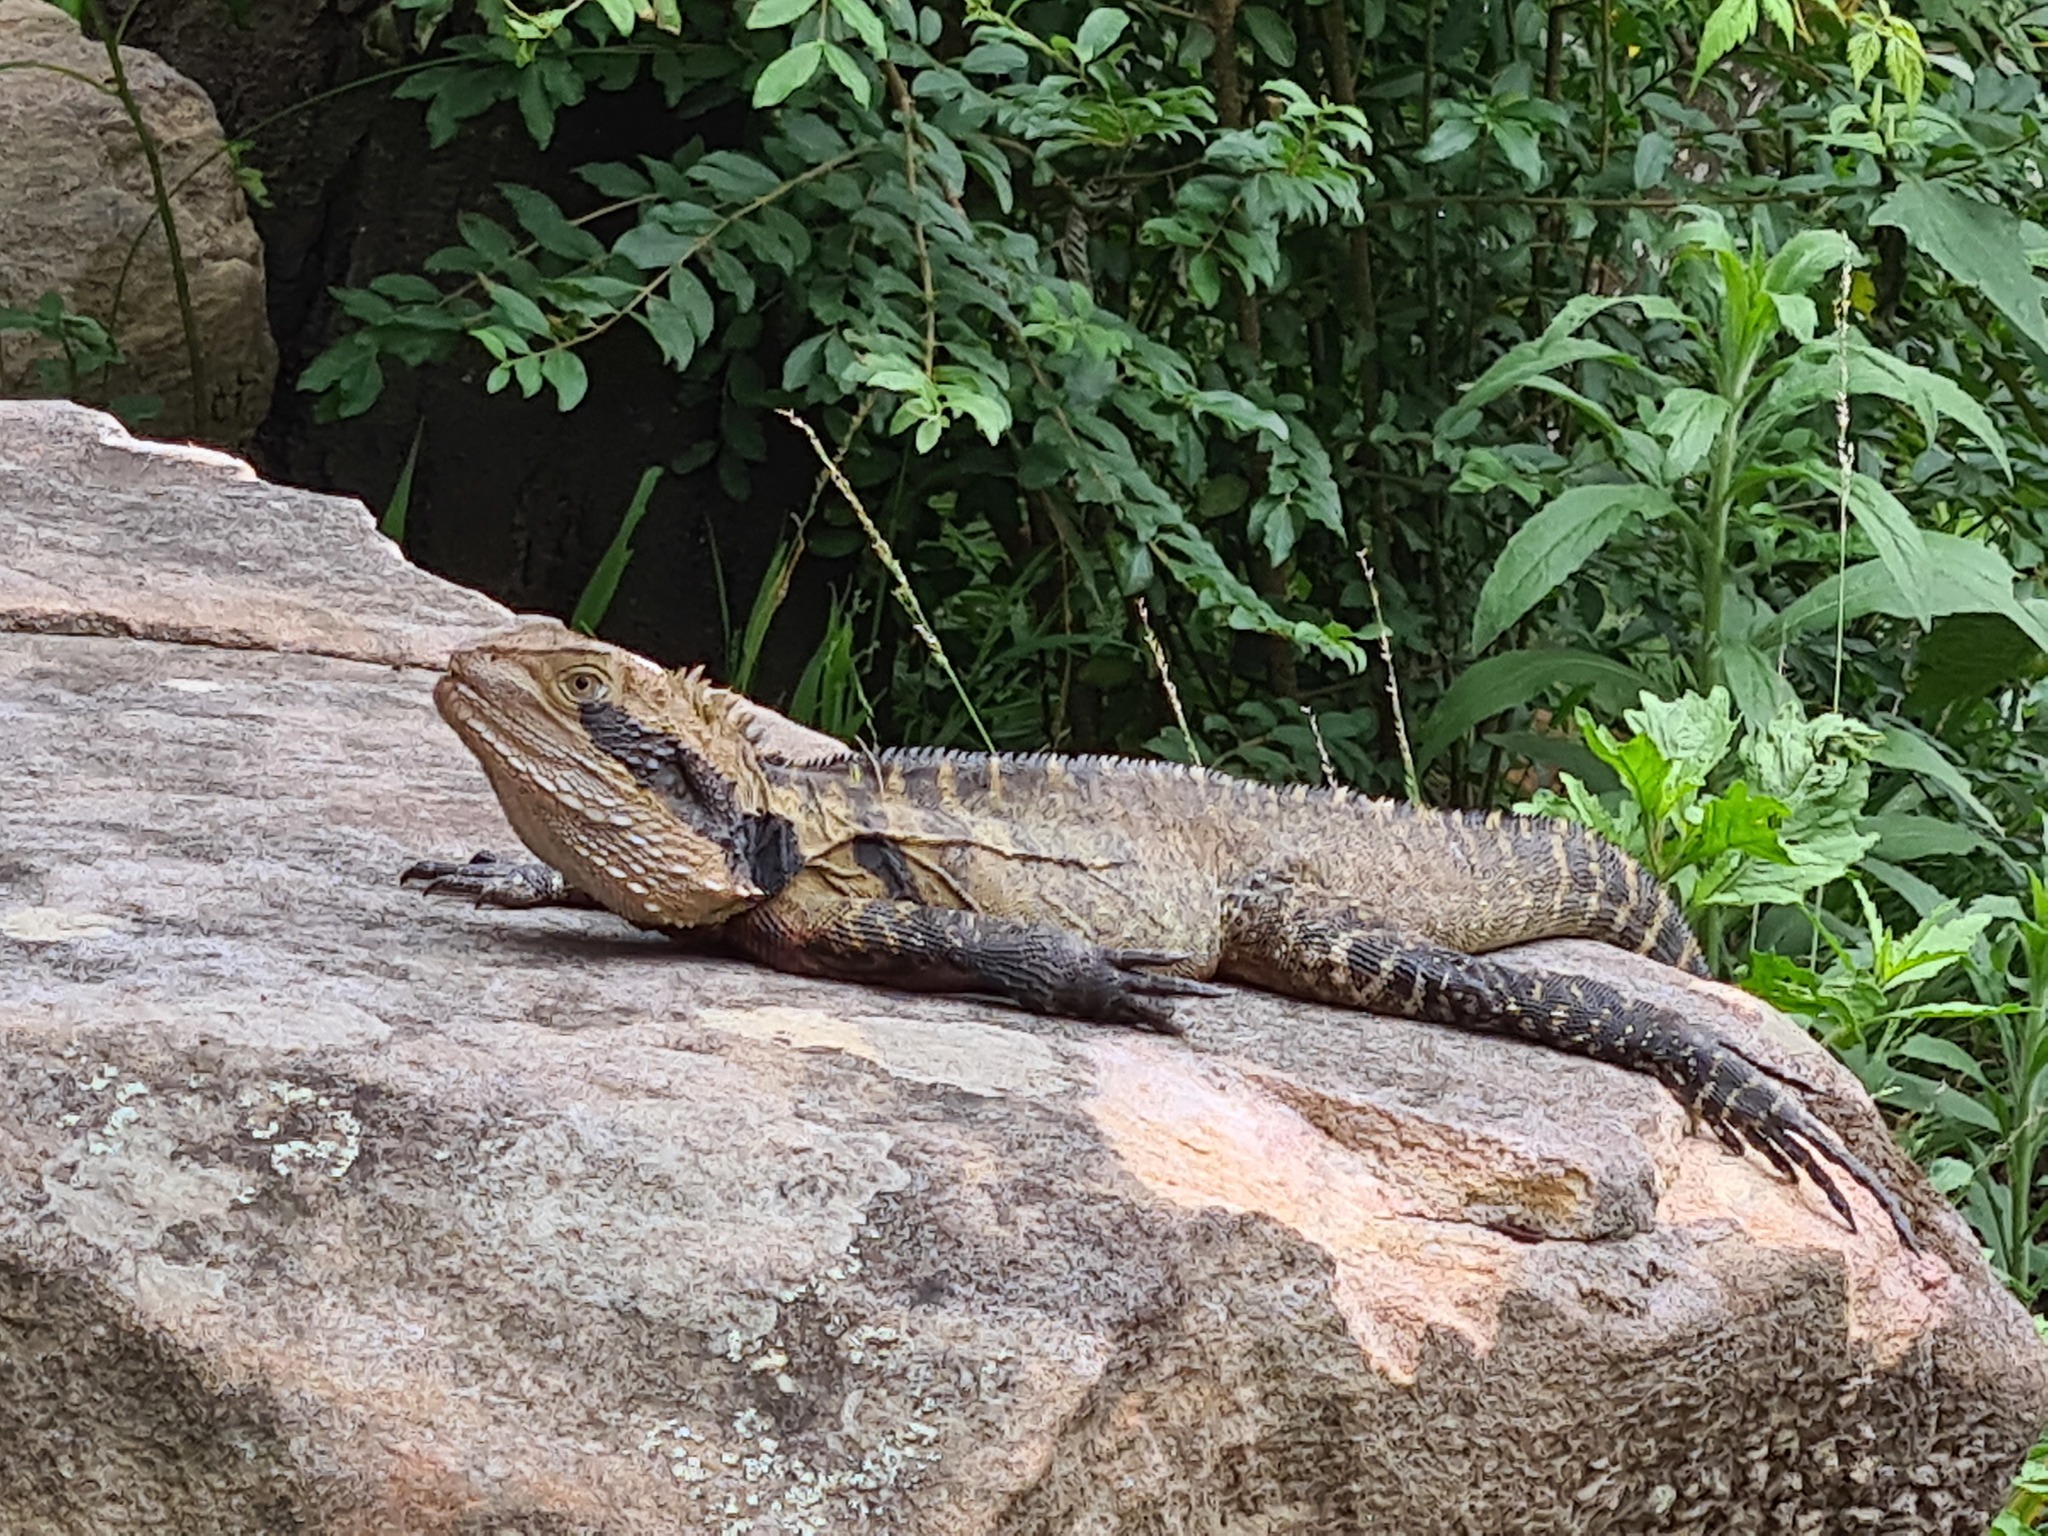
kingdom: Animalia
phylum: Chordata
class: Squamata
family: Agamidae
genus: Intellagama
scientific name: Intellagama lesueurii
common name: Eastern water dragon
